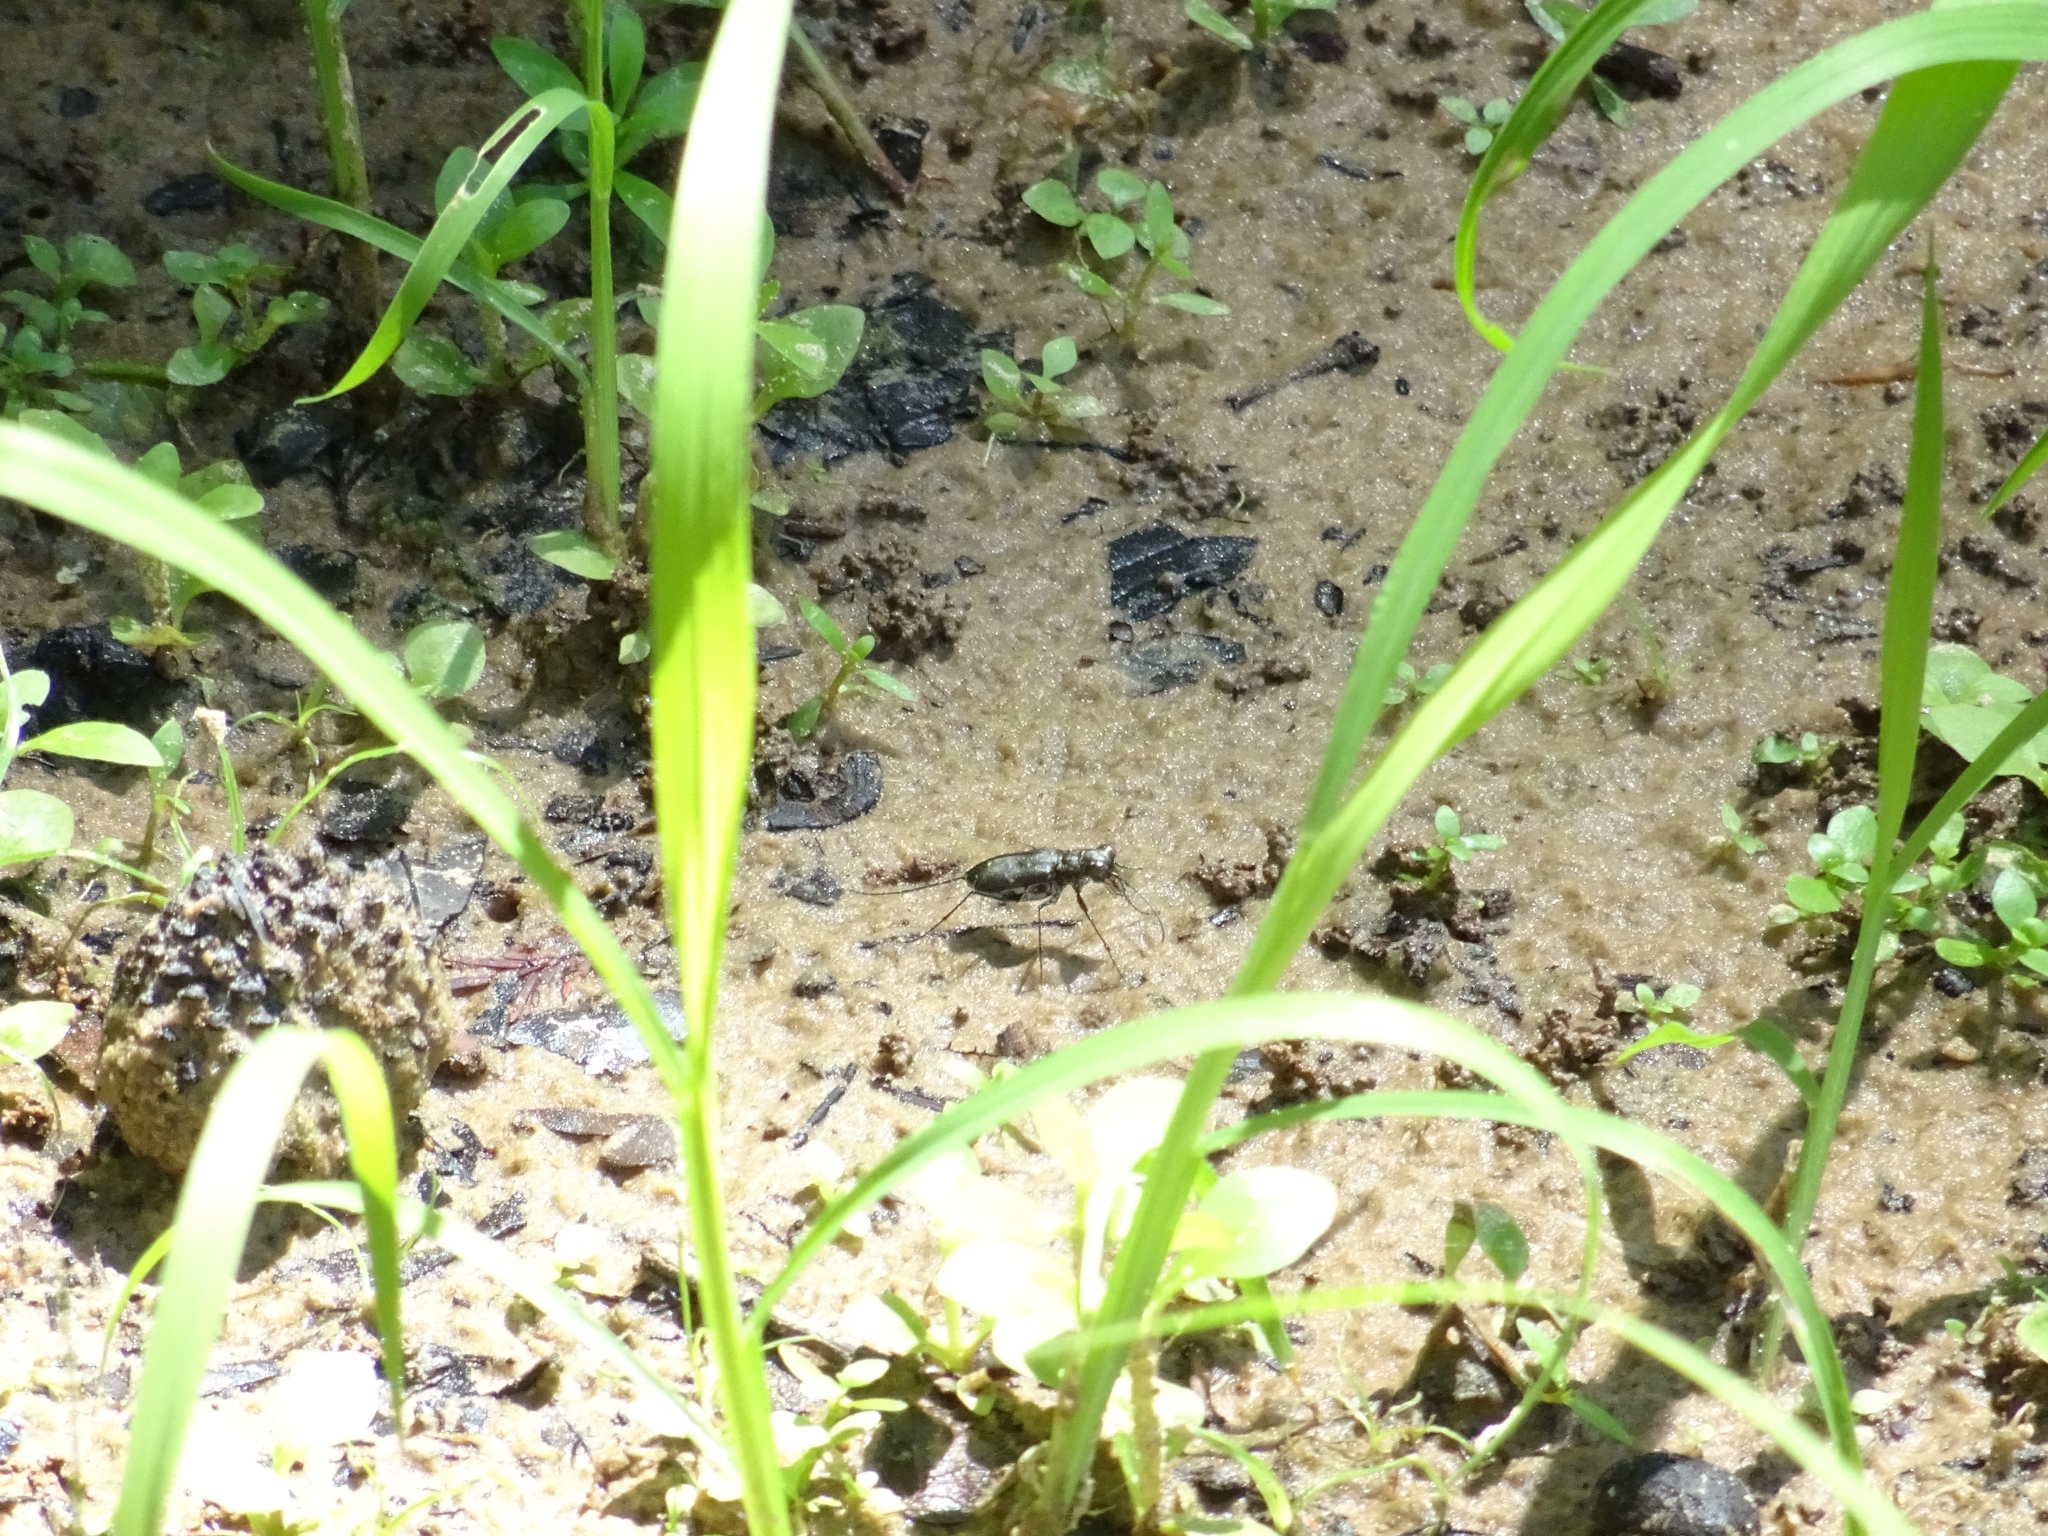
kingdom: Animalia
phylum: Arthropoda
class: Insecta
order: Coleoptera
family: Carabidae
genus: Cicindela
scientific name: Cicindela trifasciata
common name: Mudflat tiger beetle
